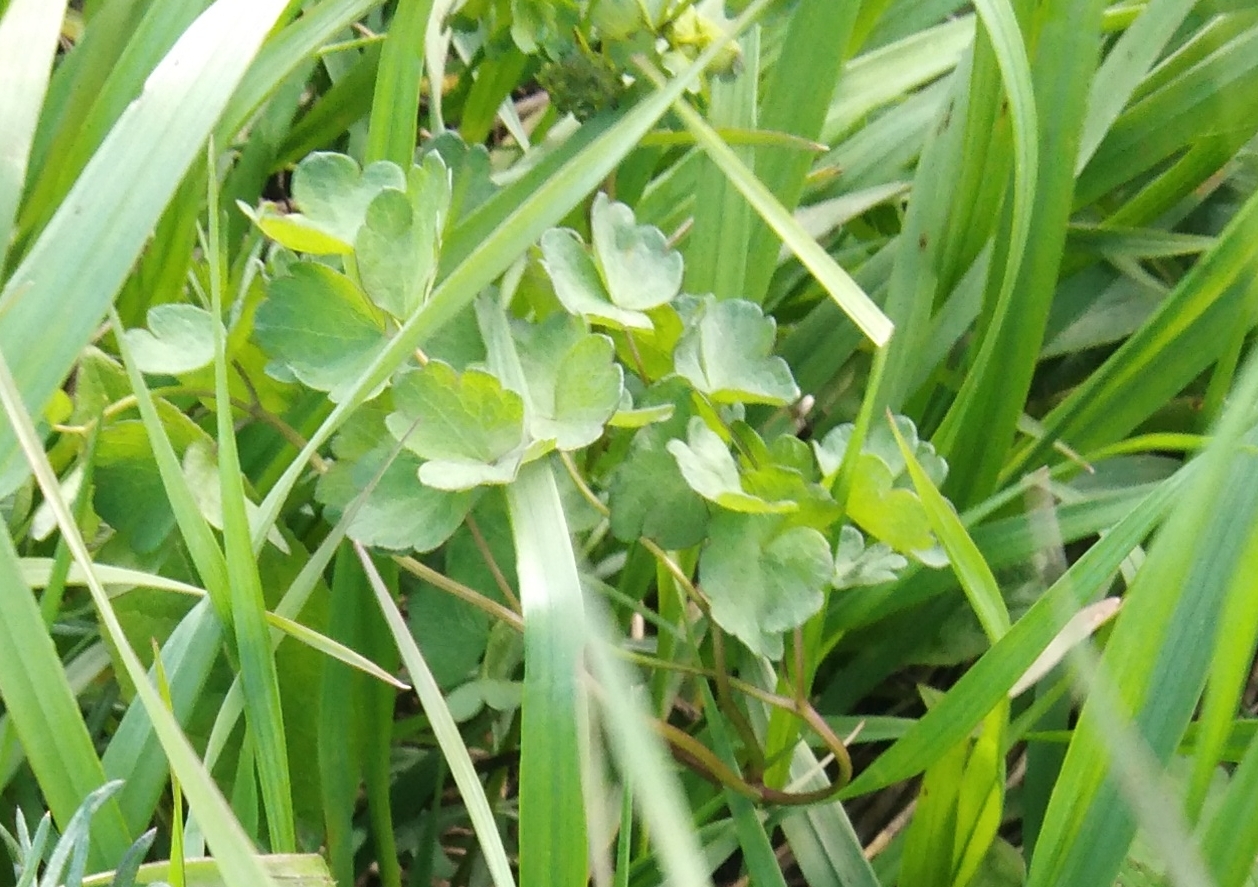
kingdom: Plantae
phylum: Tracheophyta
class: Magnoliopsida
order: Ranunculales
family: Ranunculaceae
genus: Thalictrum
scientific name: Thalictrum minus
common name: Lesser meadow-rue
